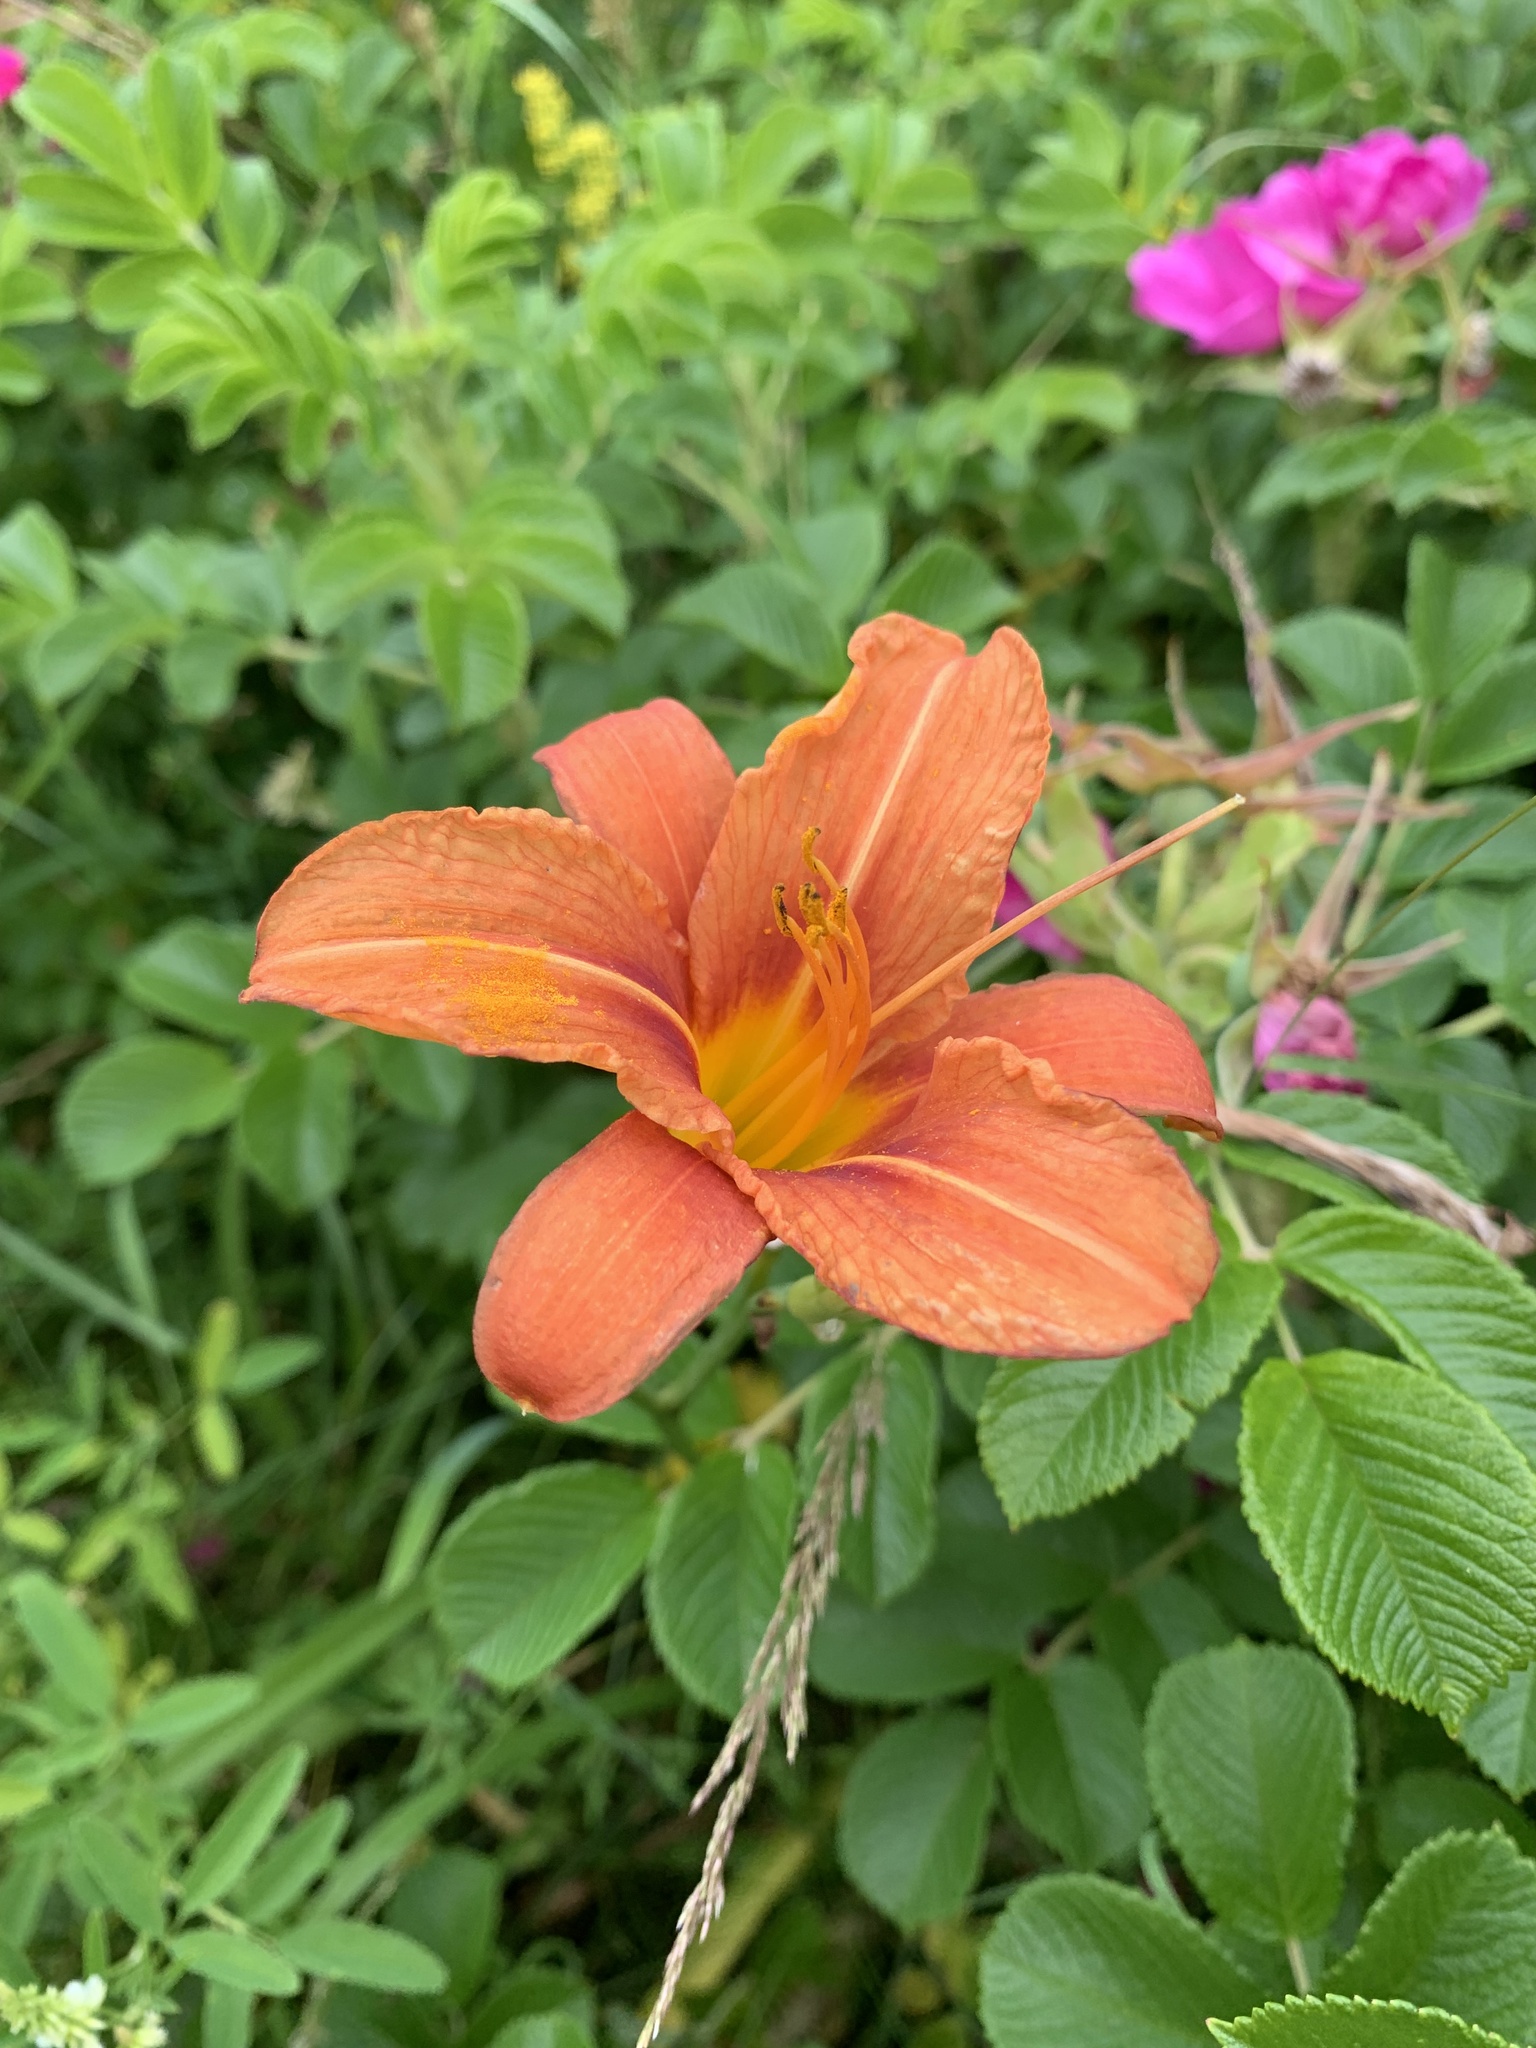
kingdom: Plantae
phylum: Tracheophyta
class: Liliopsida
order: Asparagales
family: Asphodelaceae
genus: Hemerocallis
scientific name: Hemerocallis fulva
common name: Orange day-lily
